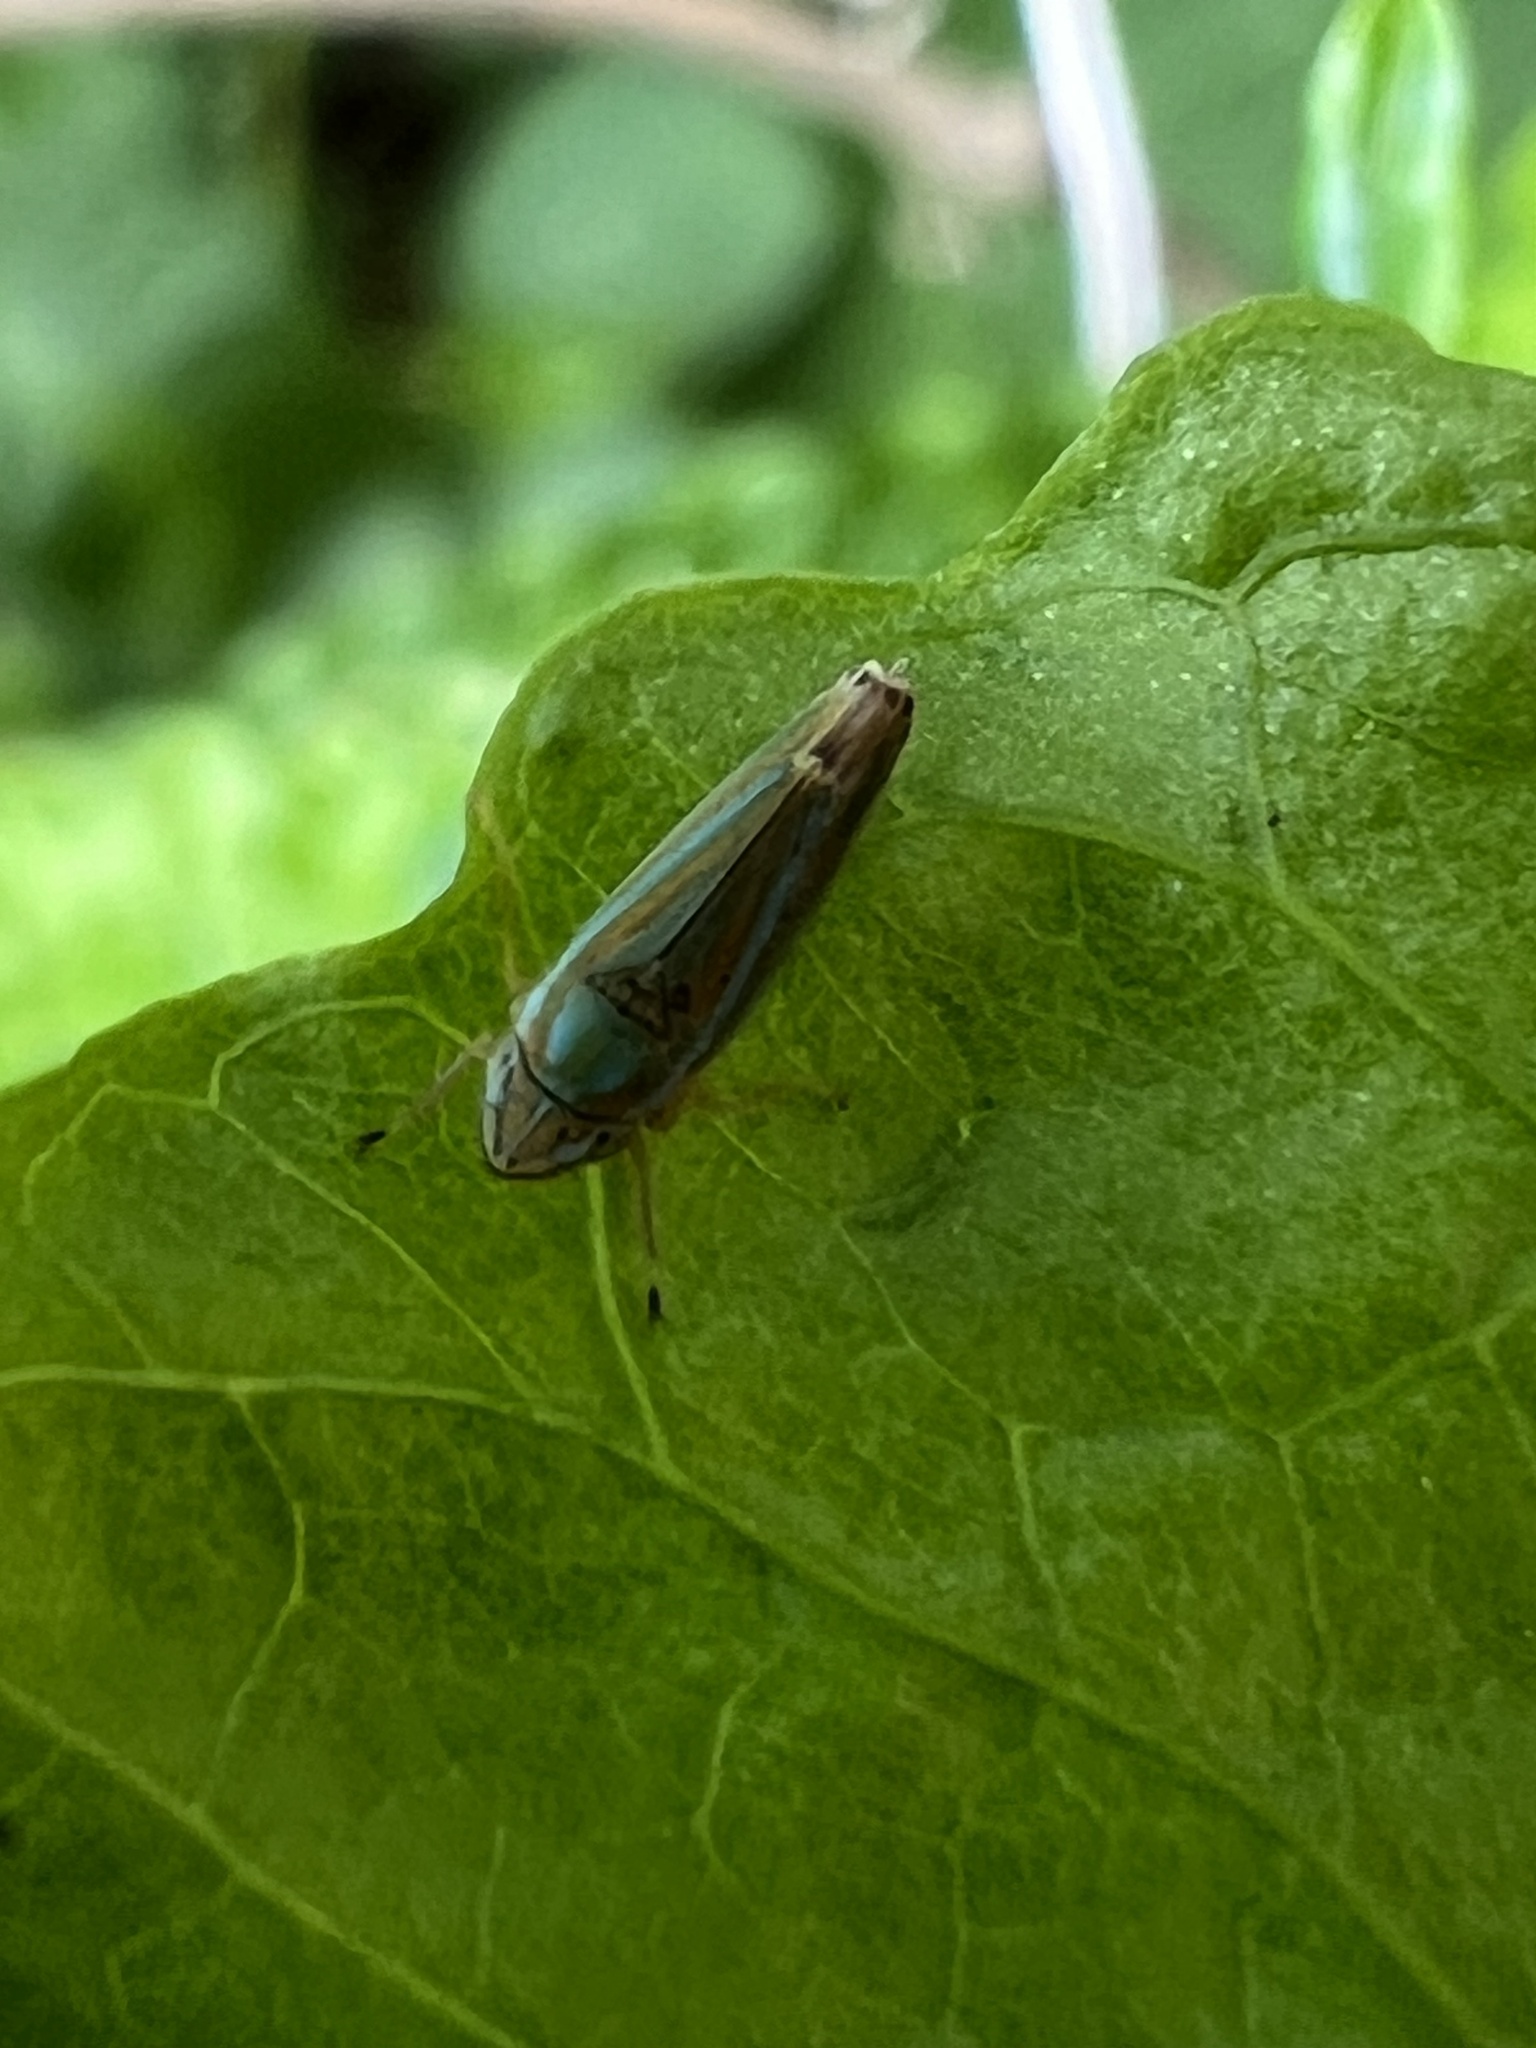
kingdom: Animalia
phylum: Arthropoda
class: Insecta
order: Hemiptera
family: Cicadellidae
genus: Graphocephala
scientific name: Graphocephala versuta
